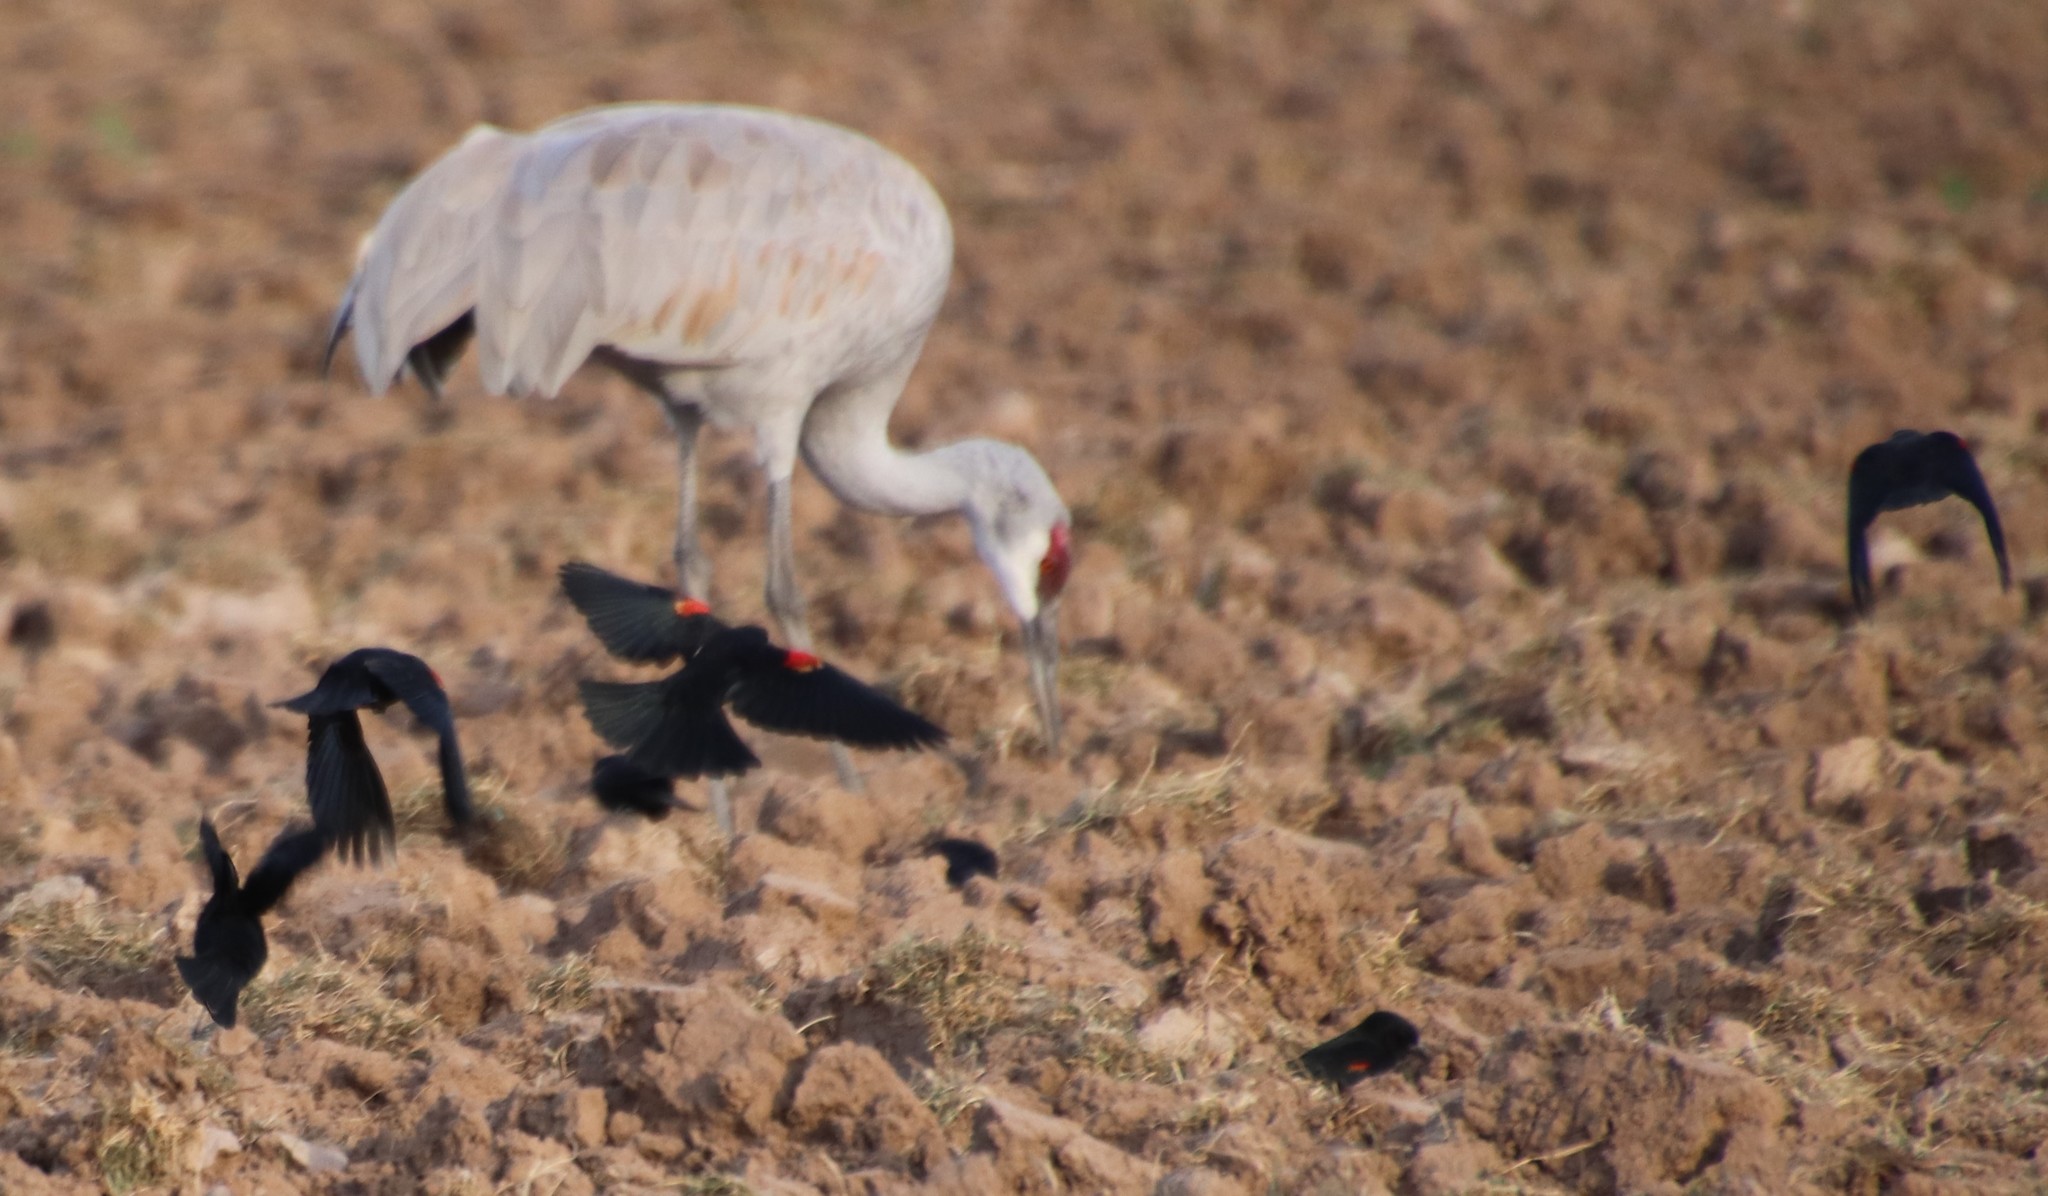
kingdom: Animalia
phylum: Chordata
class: Aves
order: Passeriformes
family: Icteridae
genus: Agelaius
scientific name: Agelaius phoeniceus
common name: Red-winged blackbird
